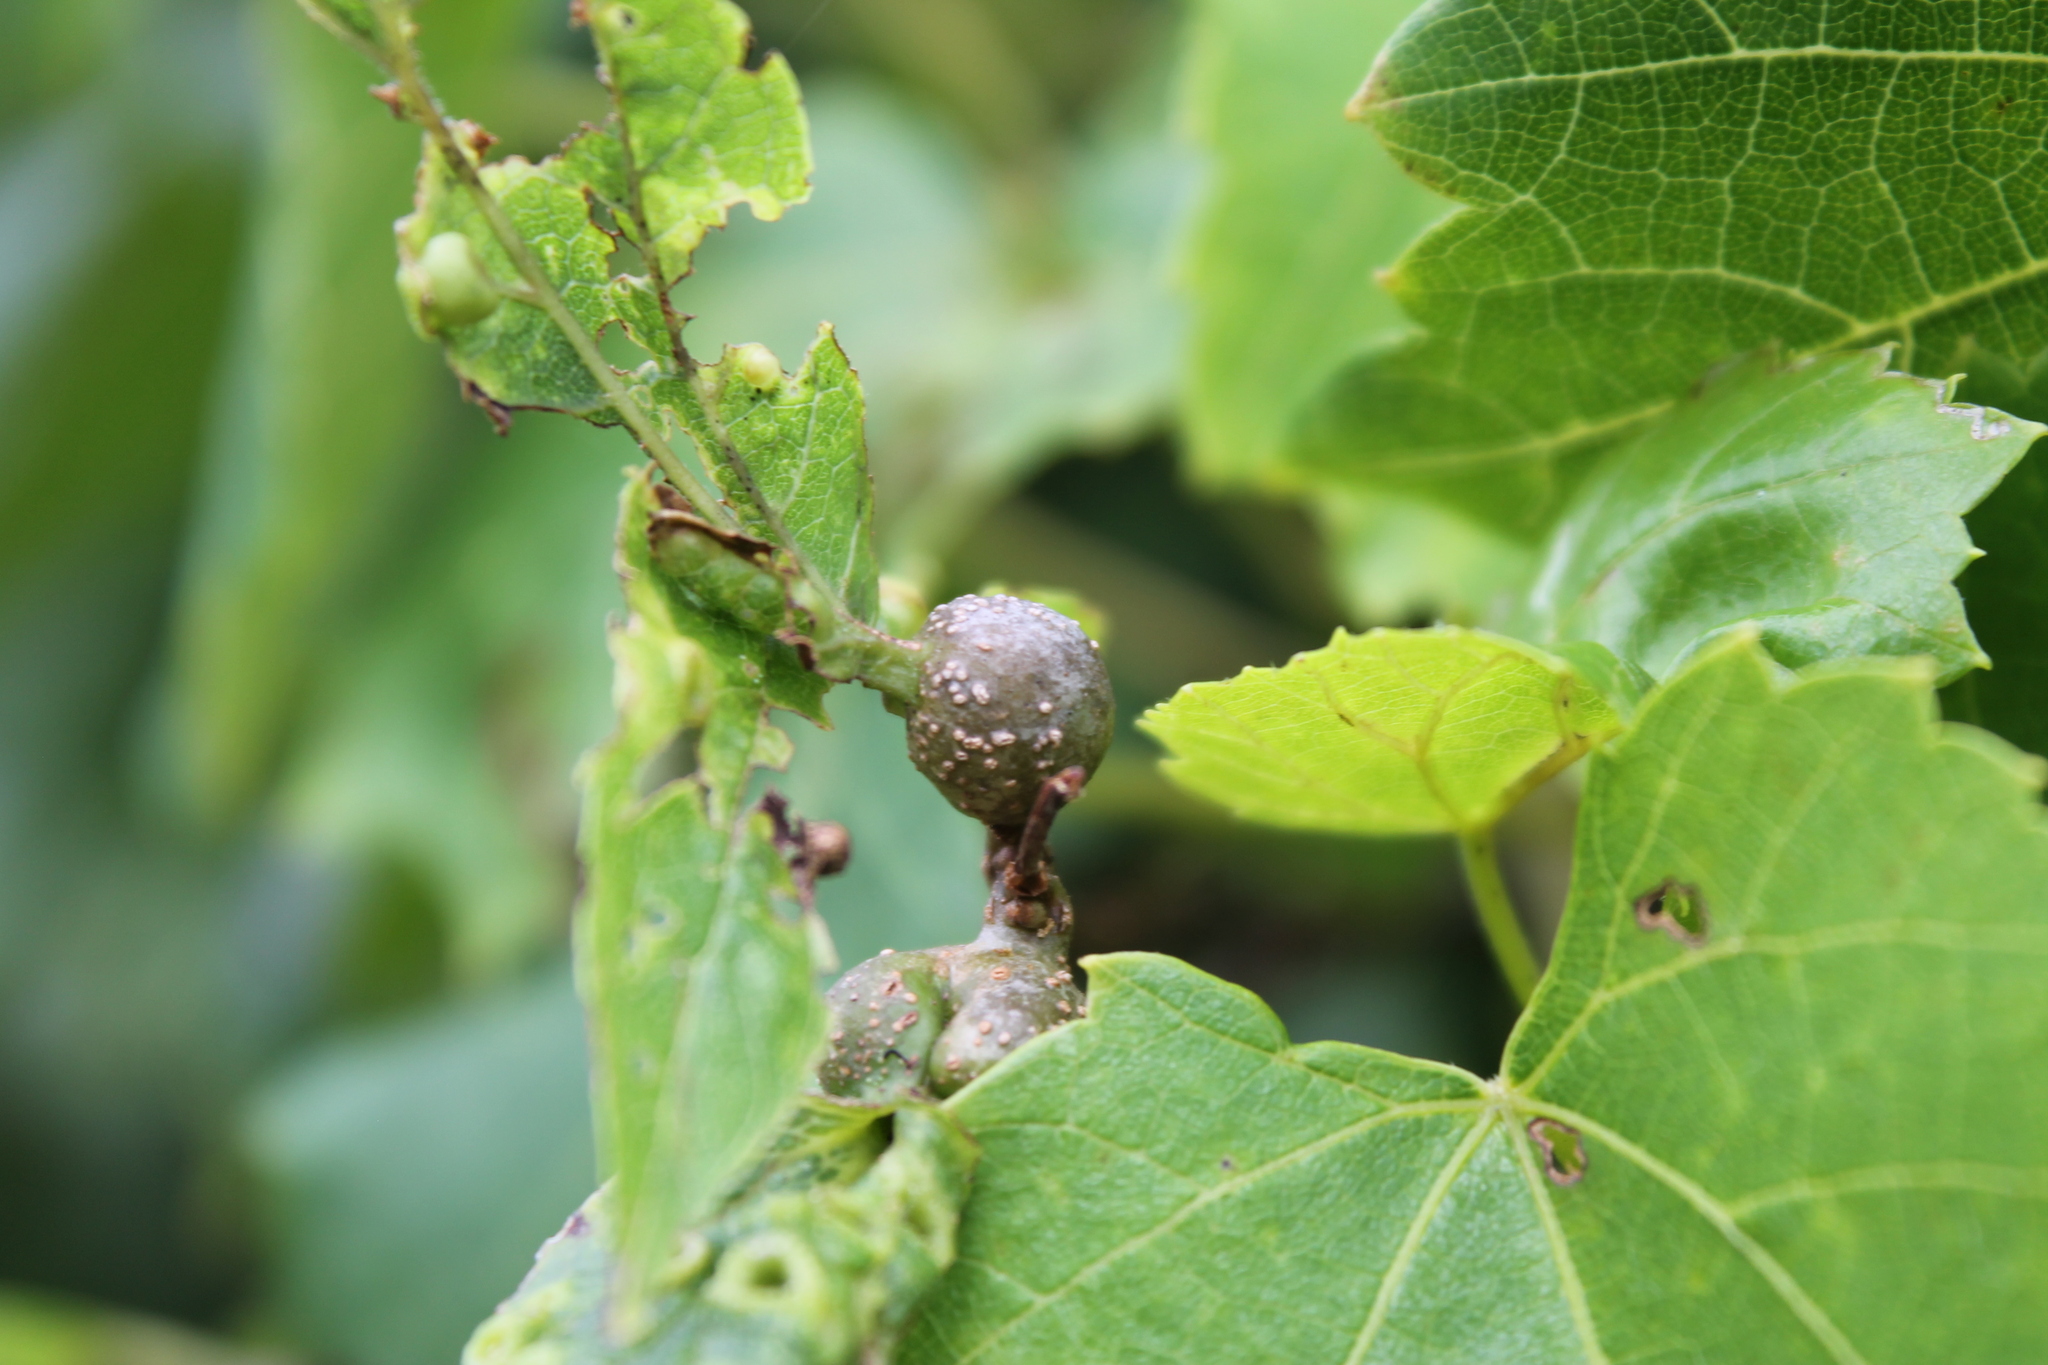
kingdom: Animalia
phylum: Arthropoda
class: Insecta
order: Hemiptera
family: Aphalaridae
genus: Pachypsylla
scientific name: Pachypsylla venusta
